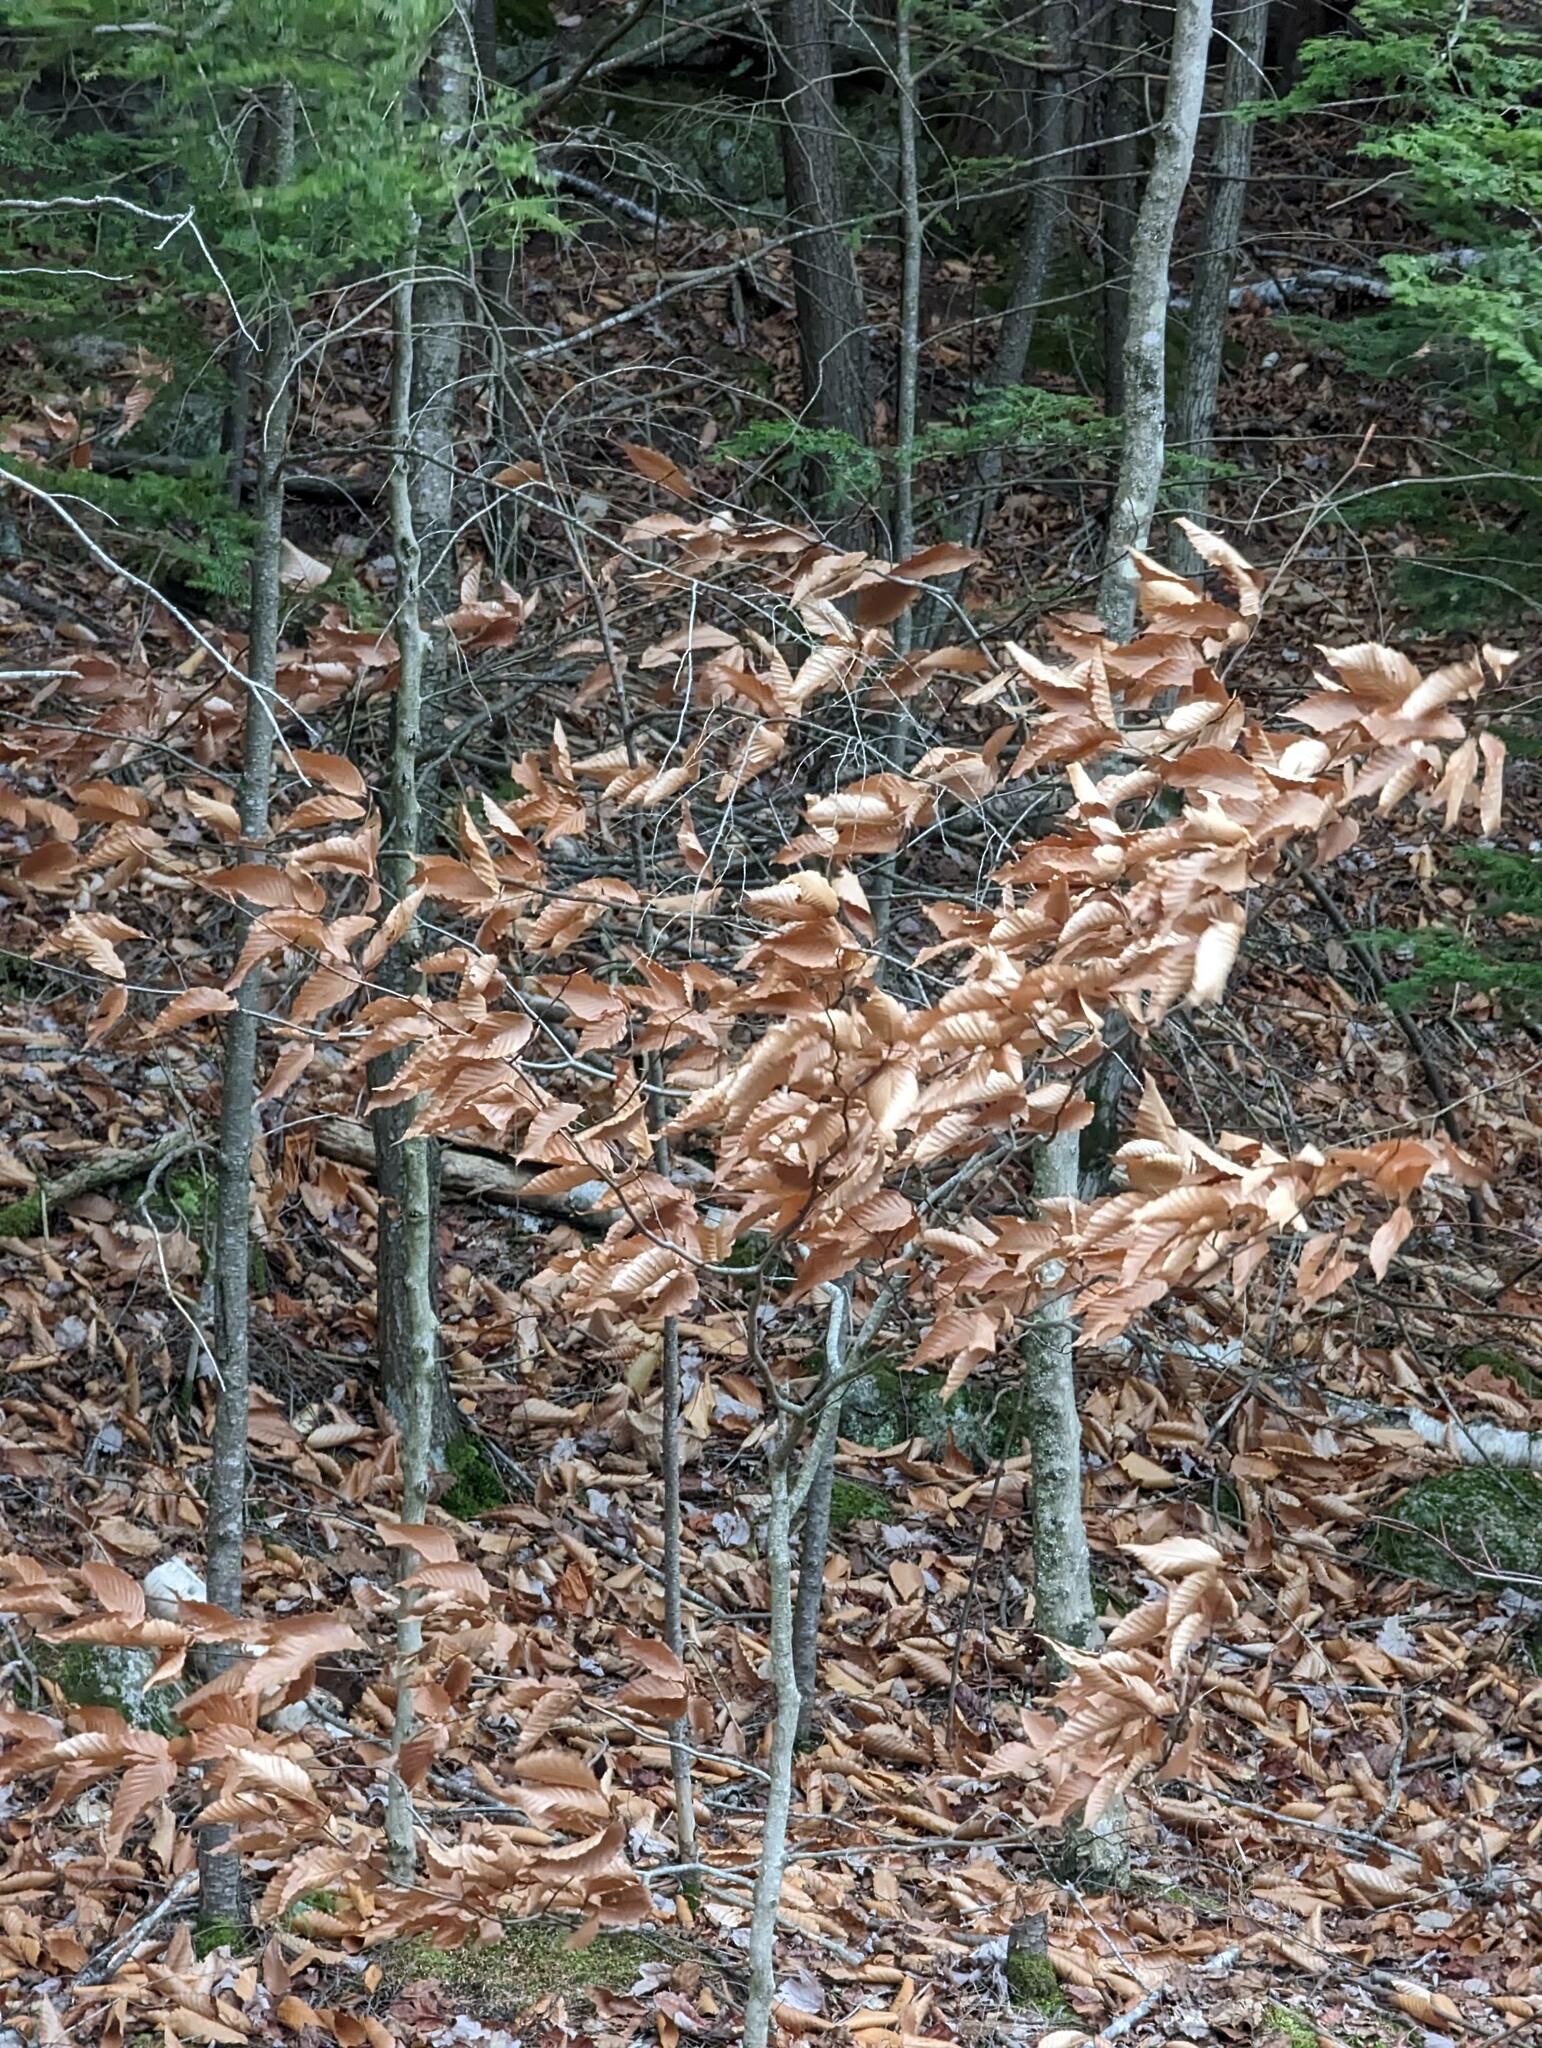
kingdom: Plantae
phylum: Tracheophyta
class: Magnoliopsida
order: Fagales
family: Fagaceae
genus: Fagus
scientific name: Fagus grandifolia
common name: American beech
